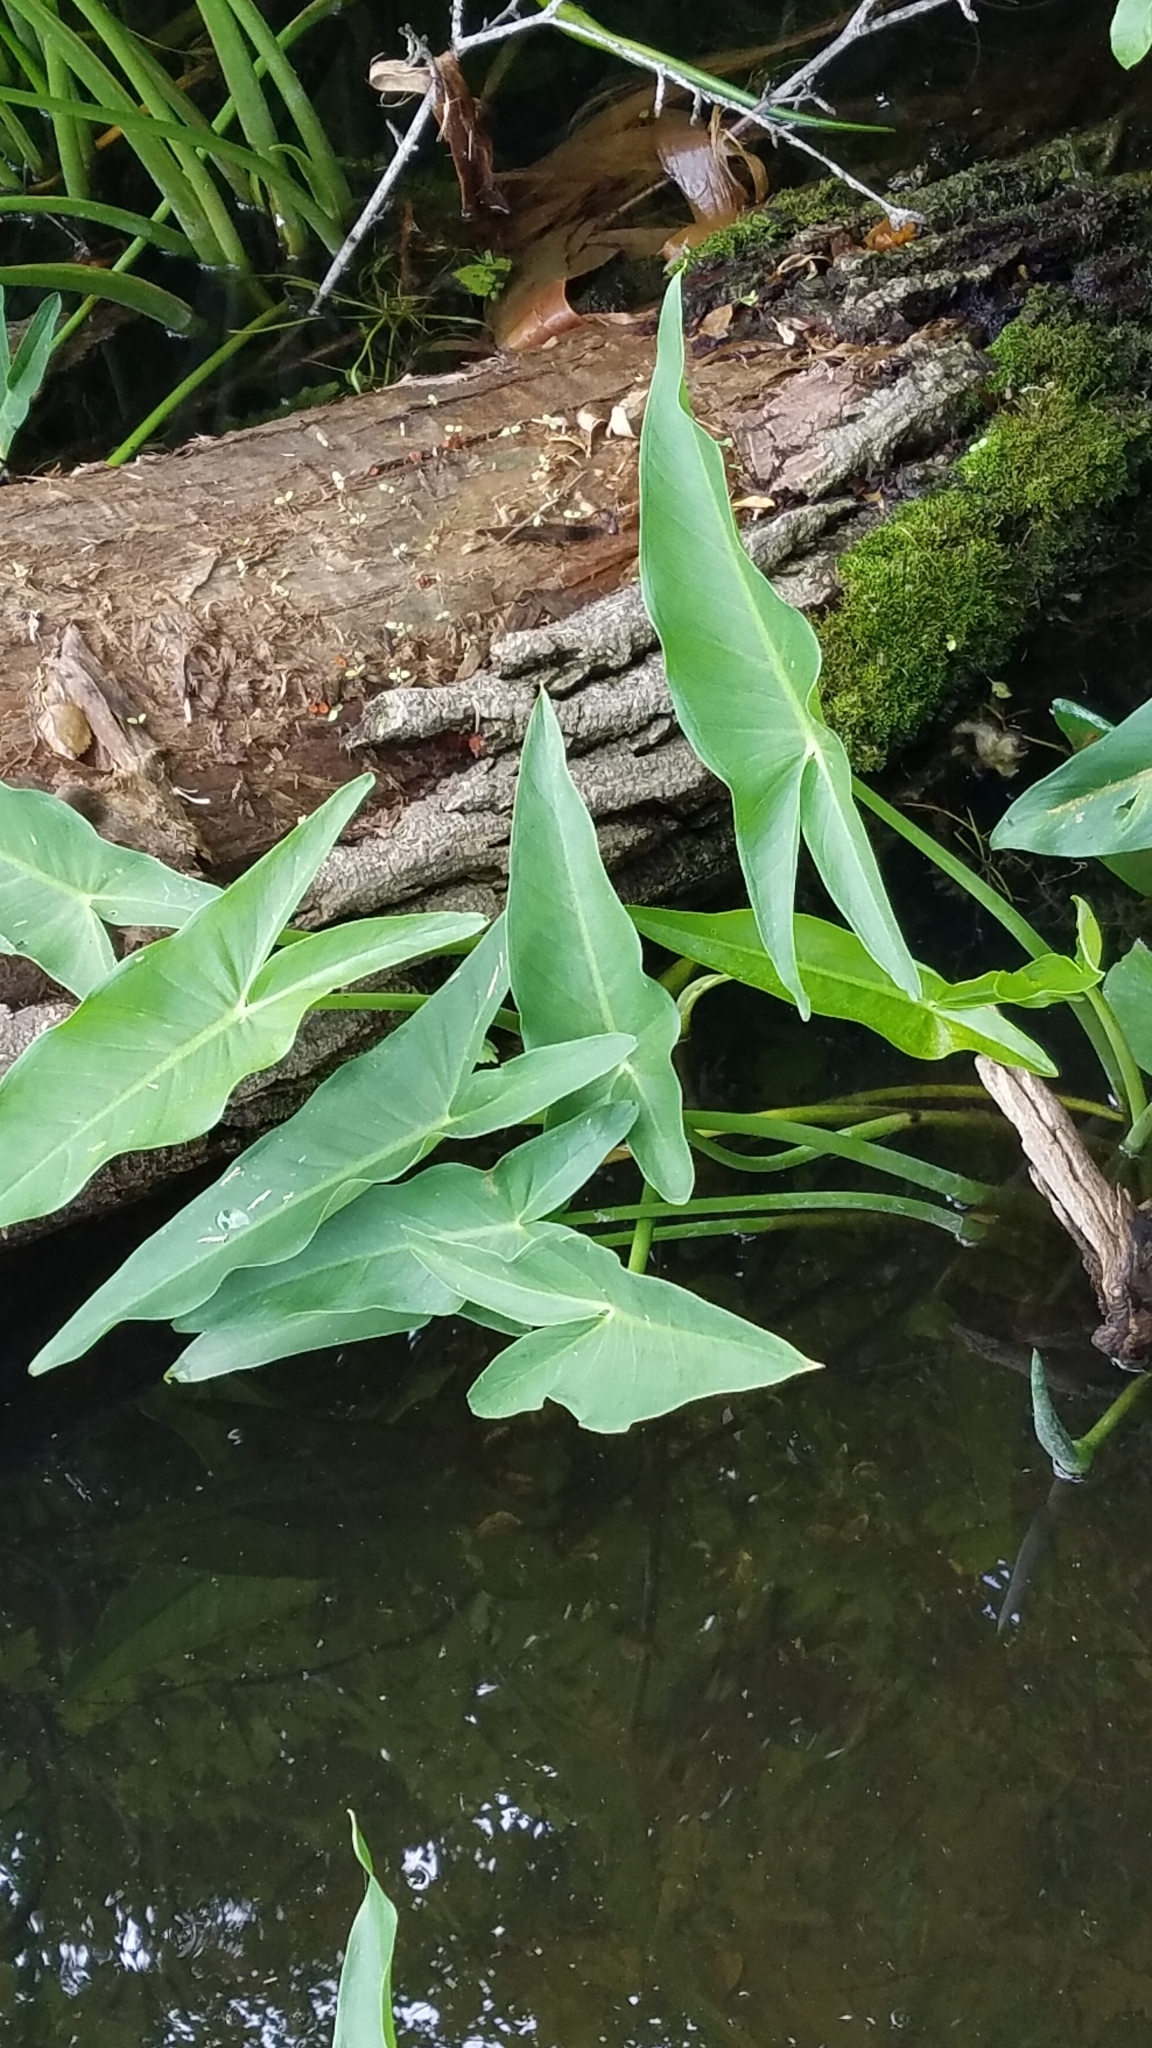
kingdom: Plantae
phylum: Tracheophyta
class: Liliopsida
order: Alismatales
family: Araceae
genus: Peltandra
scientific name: Peltandra virginica
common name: Arrow arum
